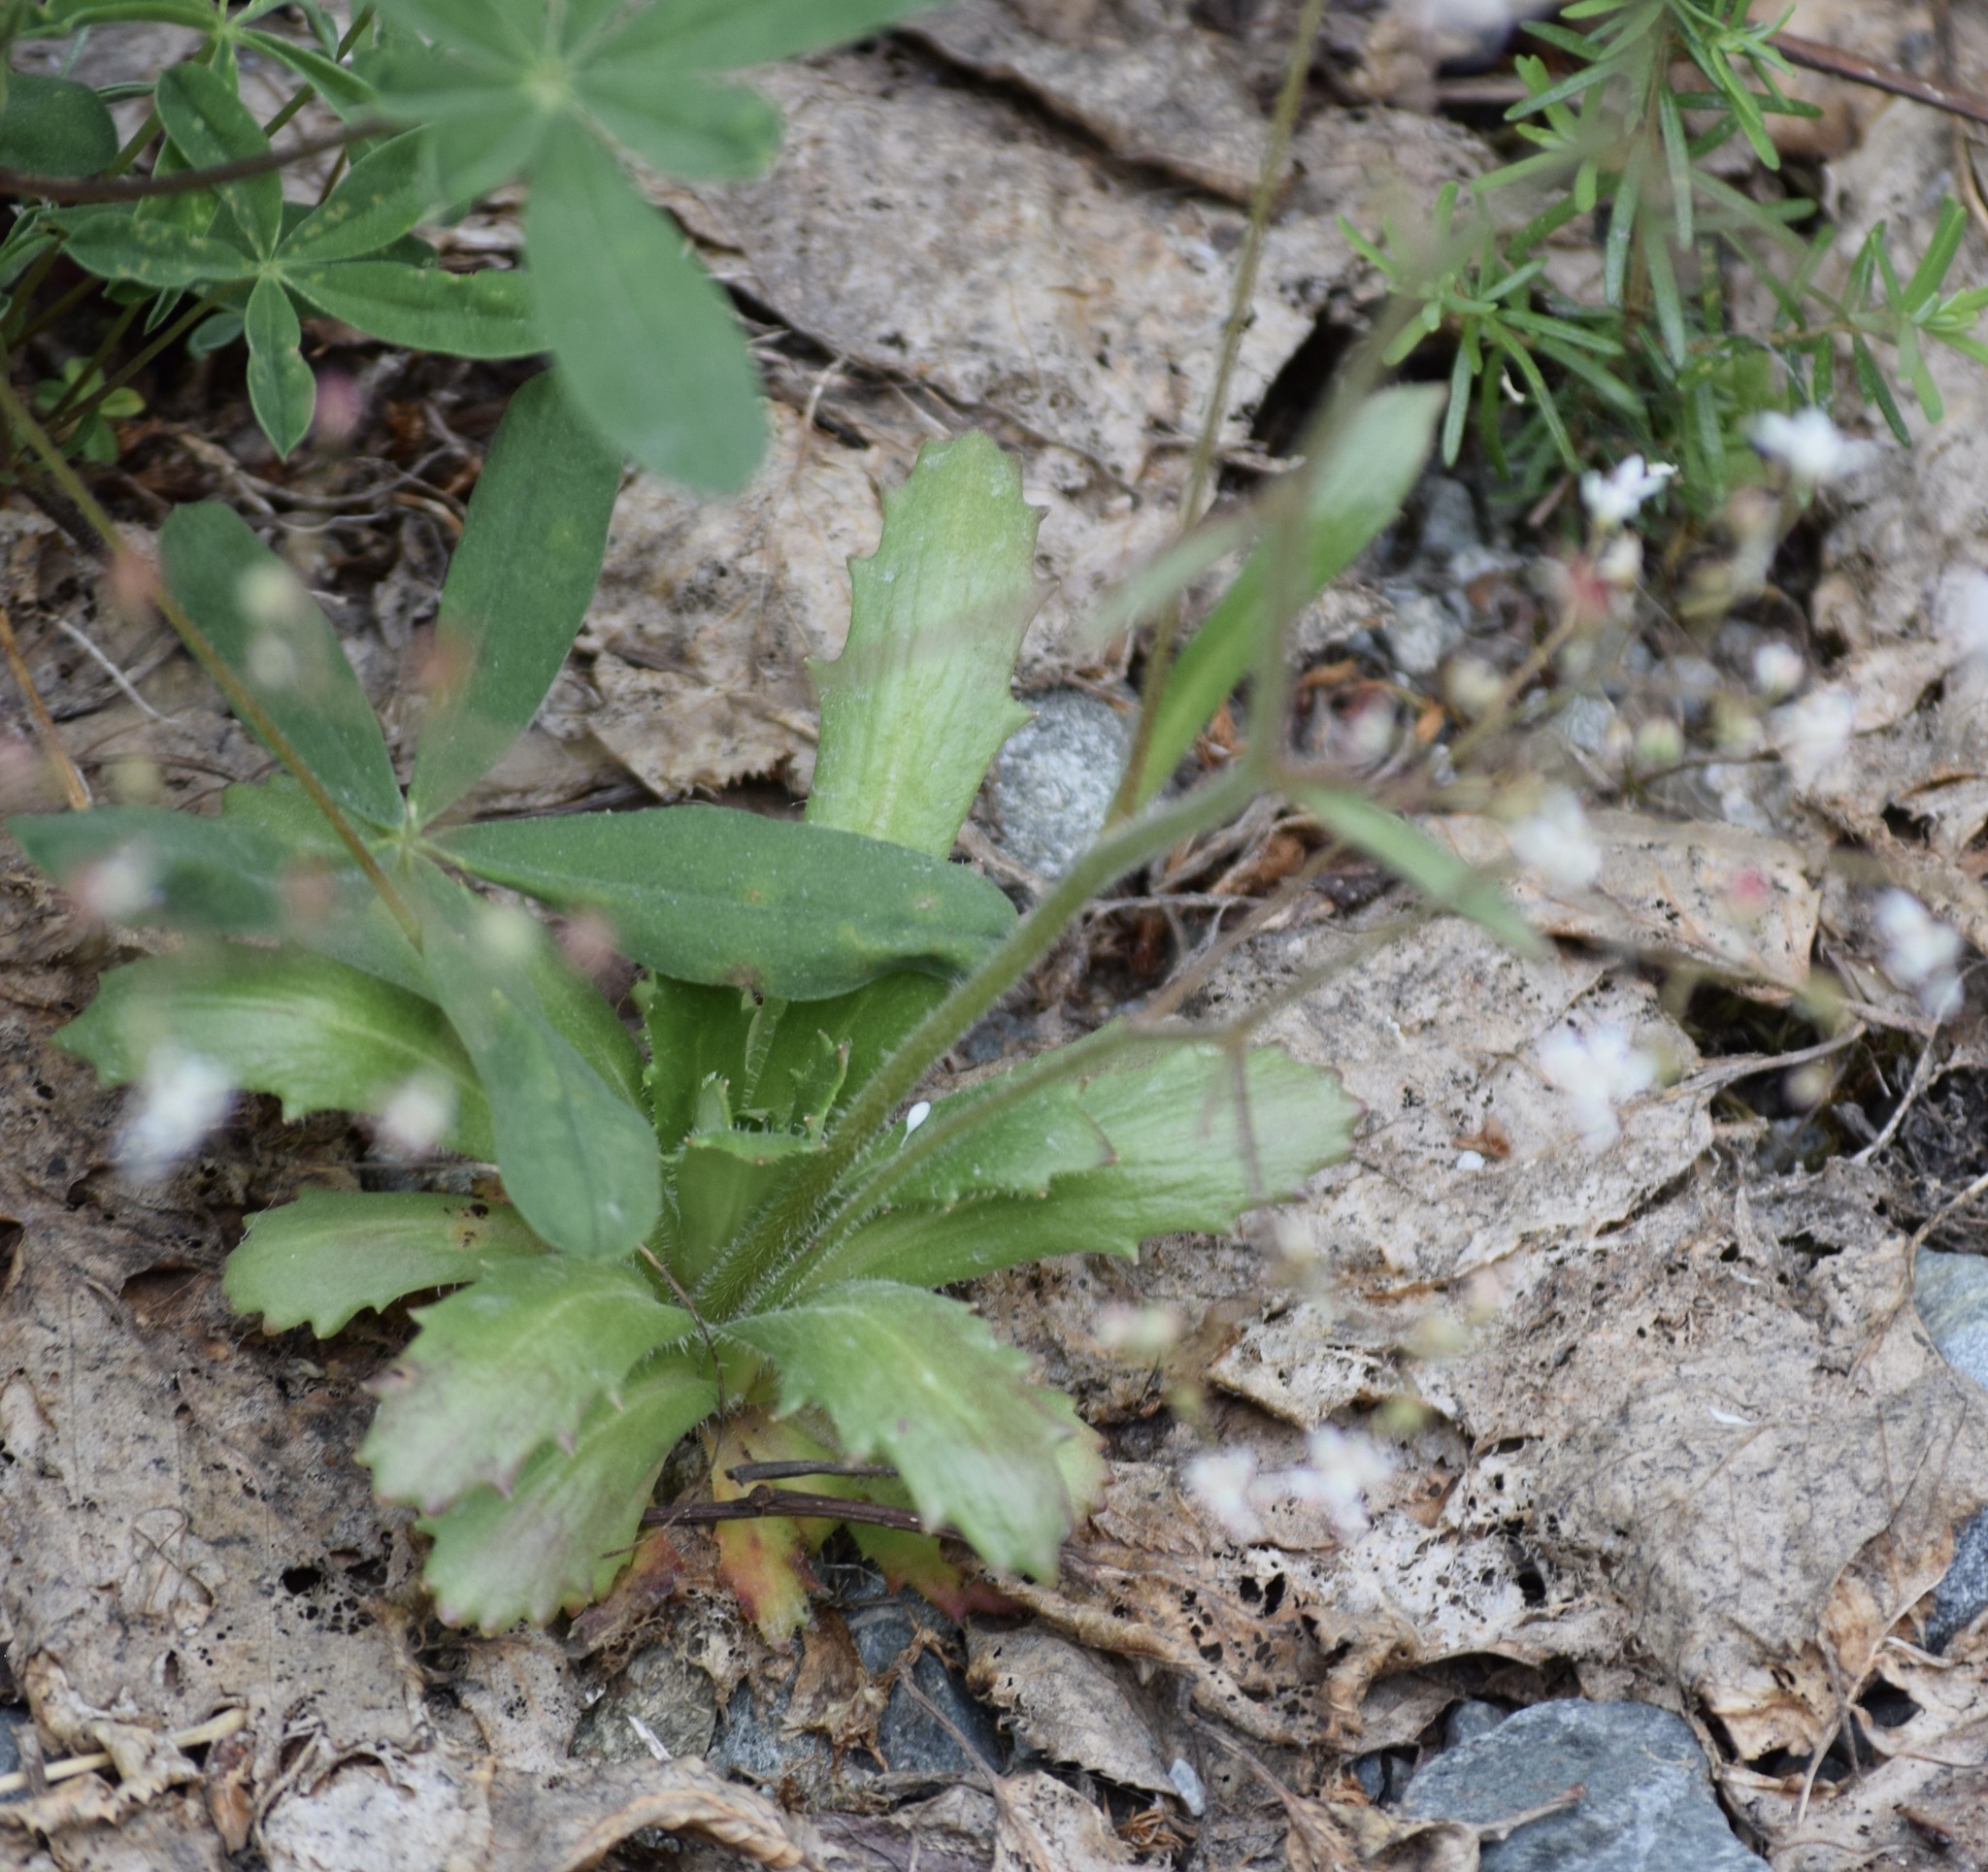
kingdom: Plantae
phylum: Tracheophyta
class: Magnoliopsida
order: Saxifragales
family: Saxifragaceae
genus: Micranthes
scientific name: Micranthes ferruginea
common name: Rusty saxifrage
